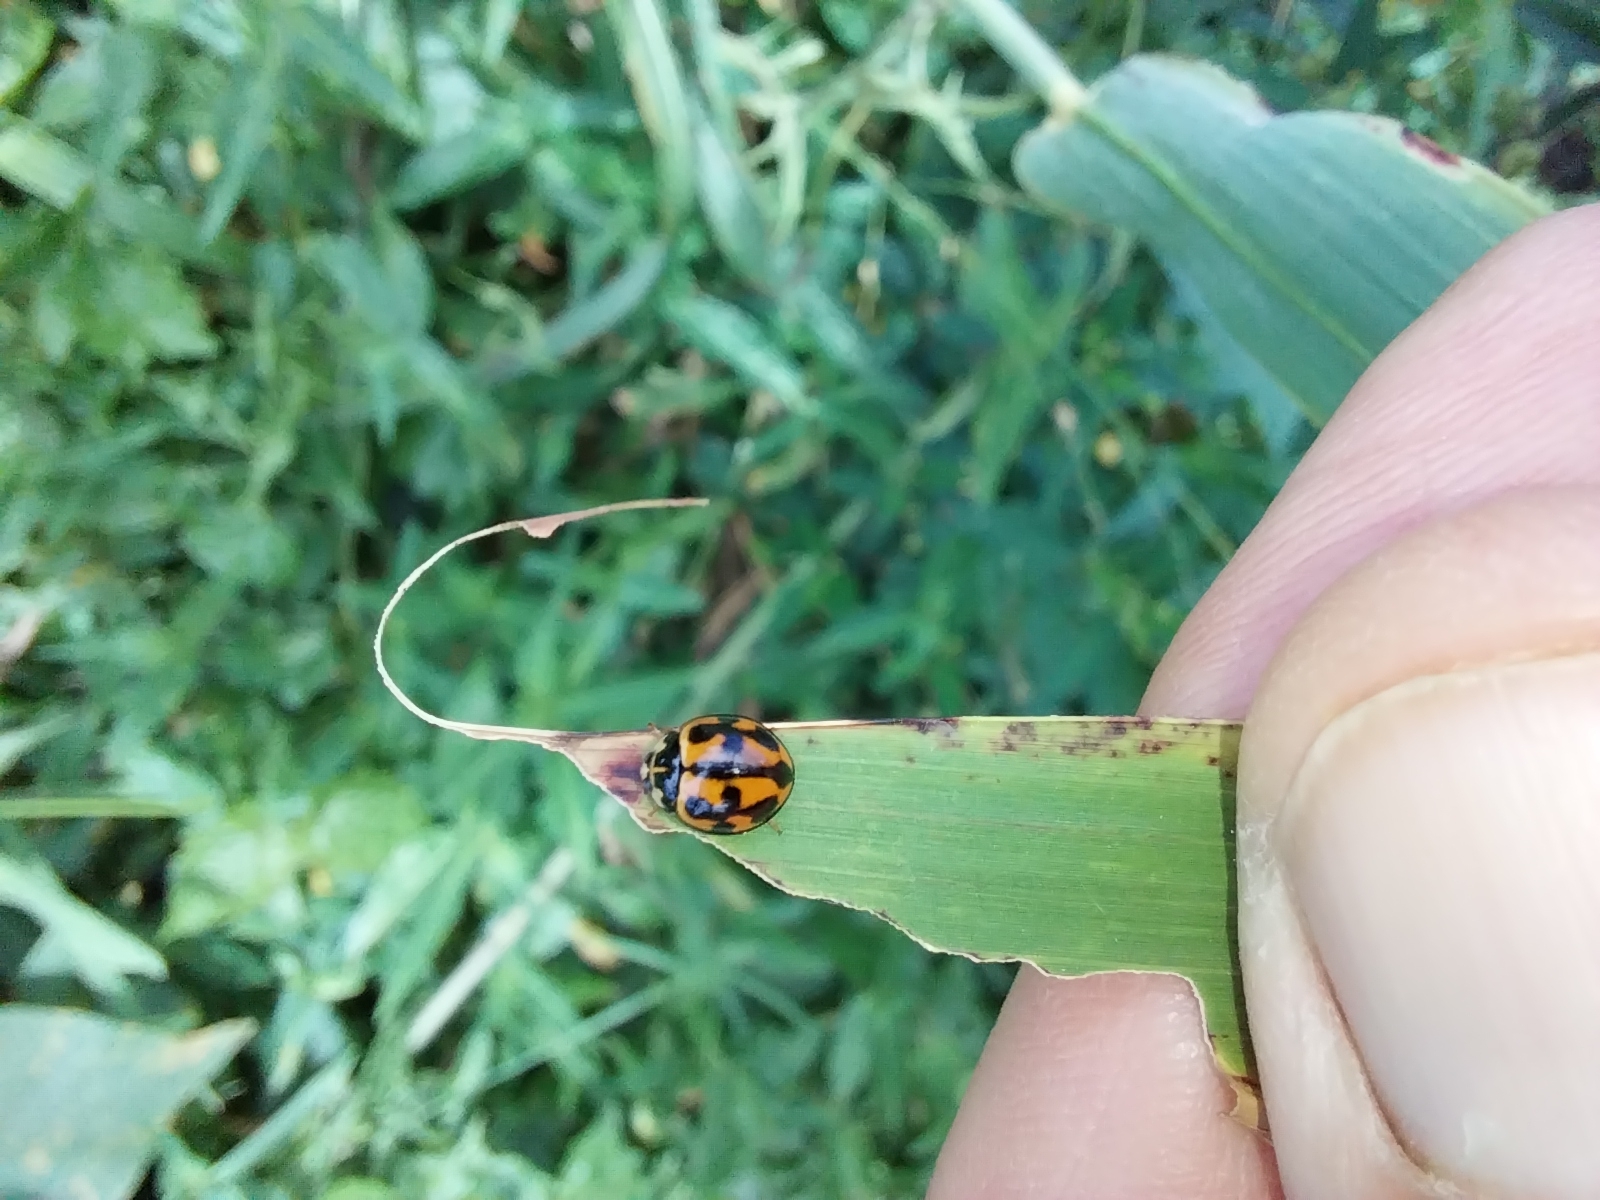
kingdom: Animalia
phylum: Arthropoda
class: Insecta
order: Coleoptera
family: Coccinellidae
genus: Coelophora
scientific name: Coelophora inaequalis
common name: Common australian lady beetle
